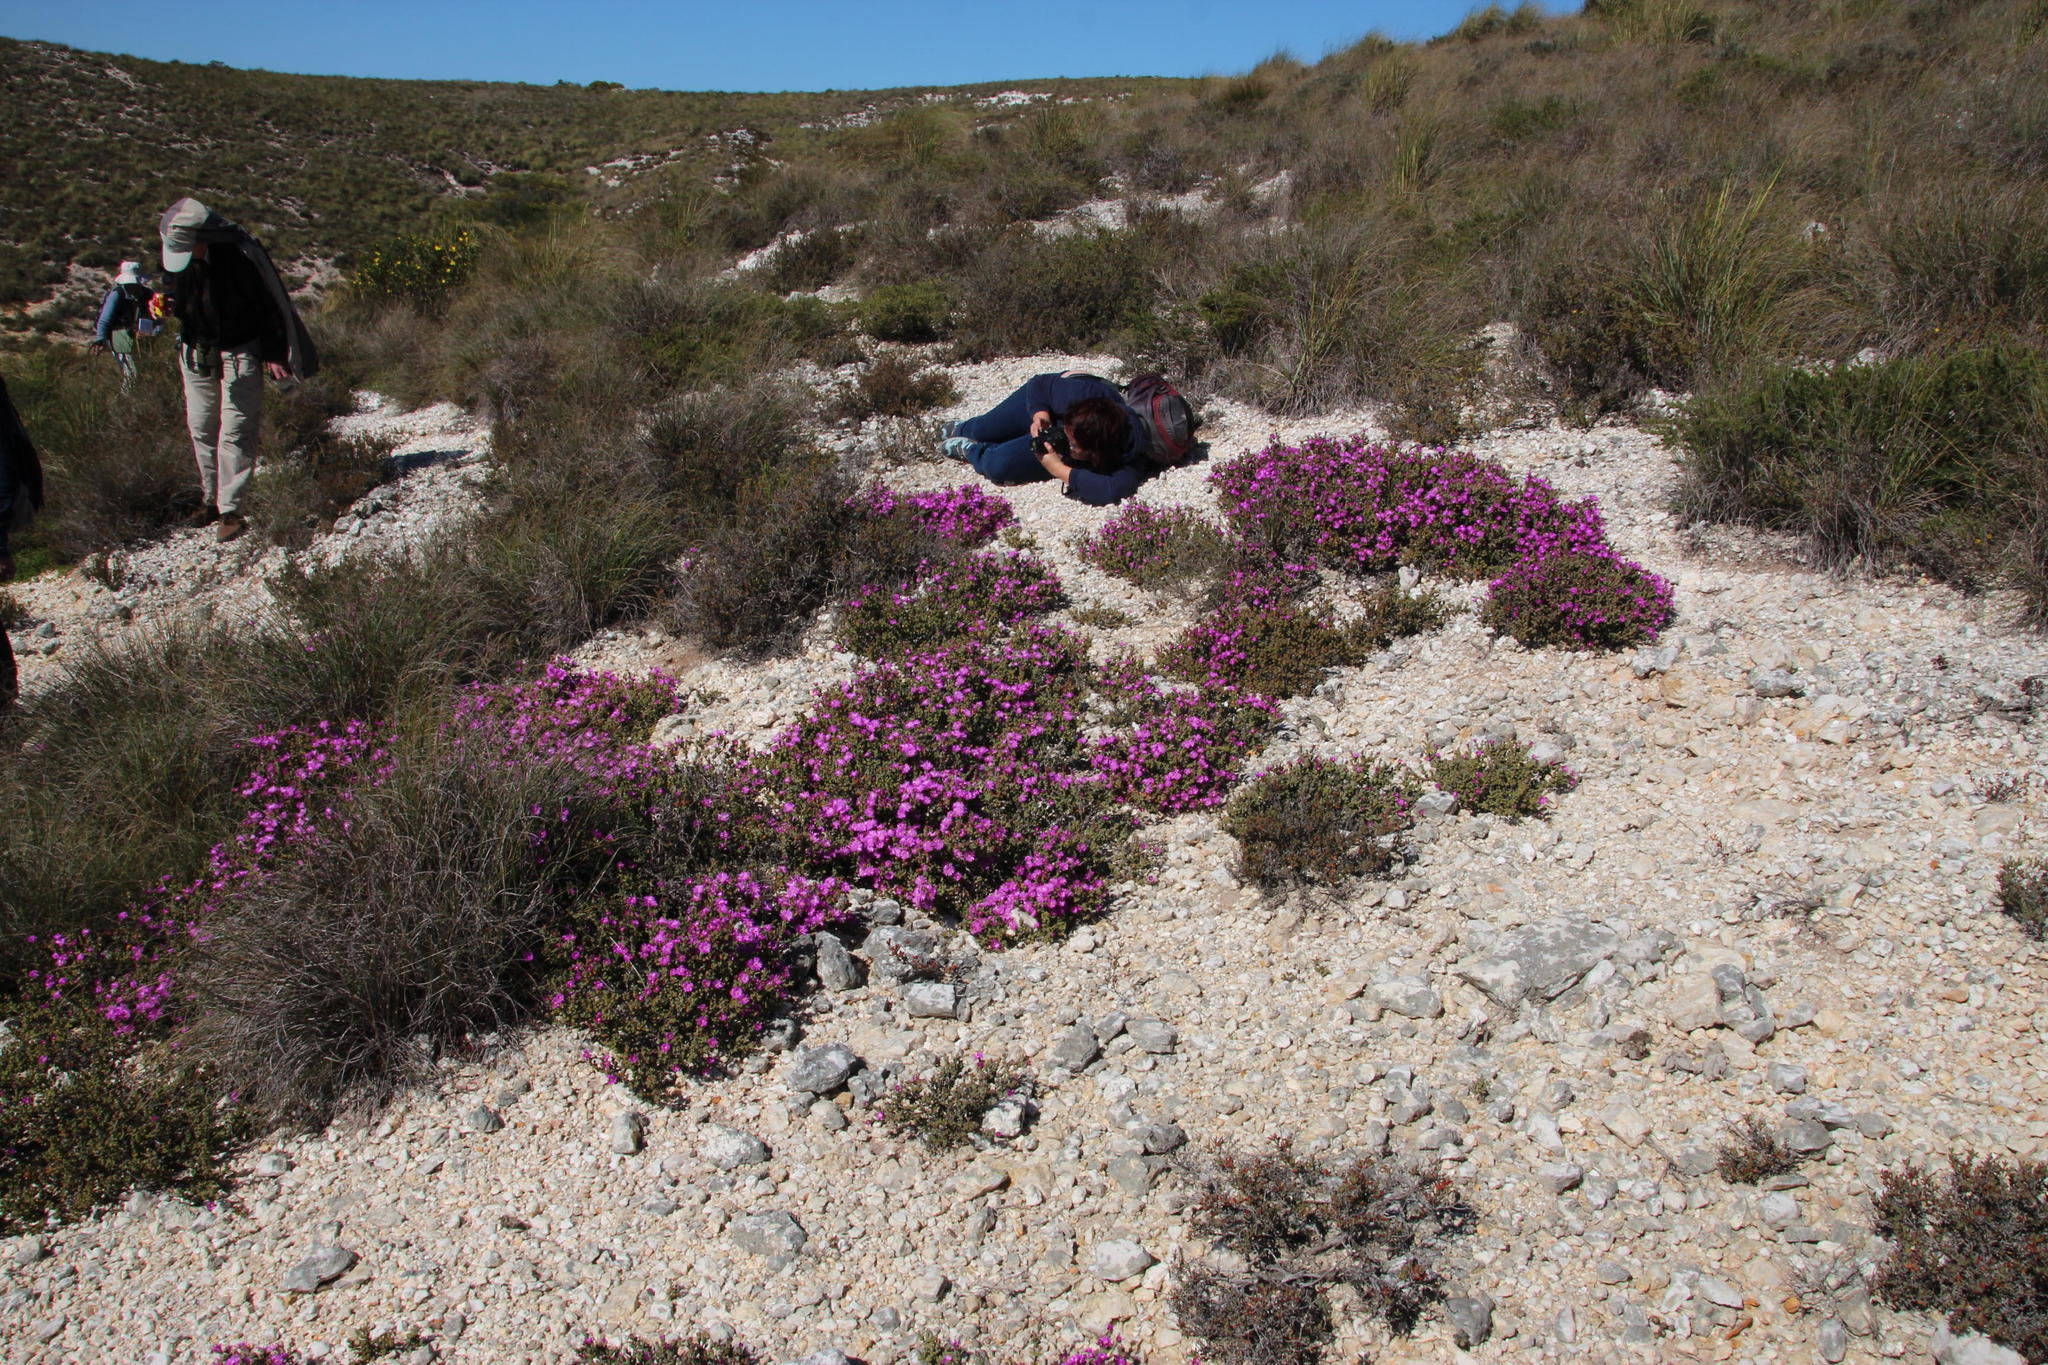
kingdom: Plantae
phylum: Tracheophyta
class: Magnoliopsida
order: Caryophyllales
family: Aizoaceae
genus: Drosanthemum
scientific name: Drosanthemum quadratum
